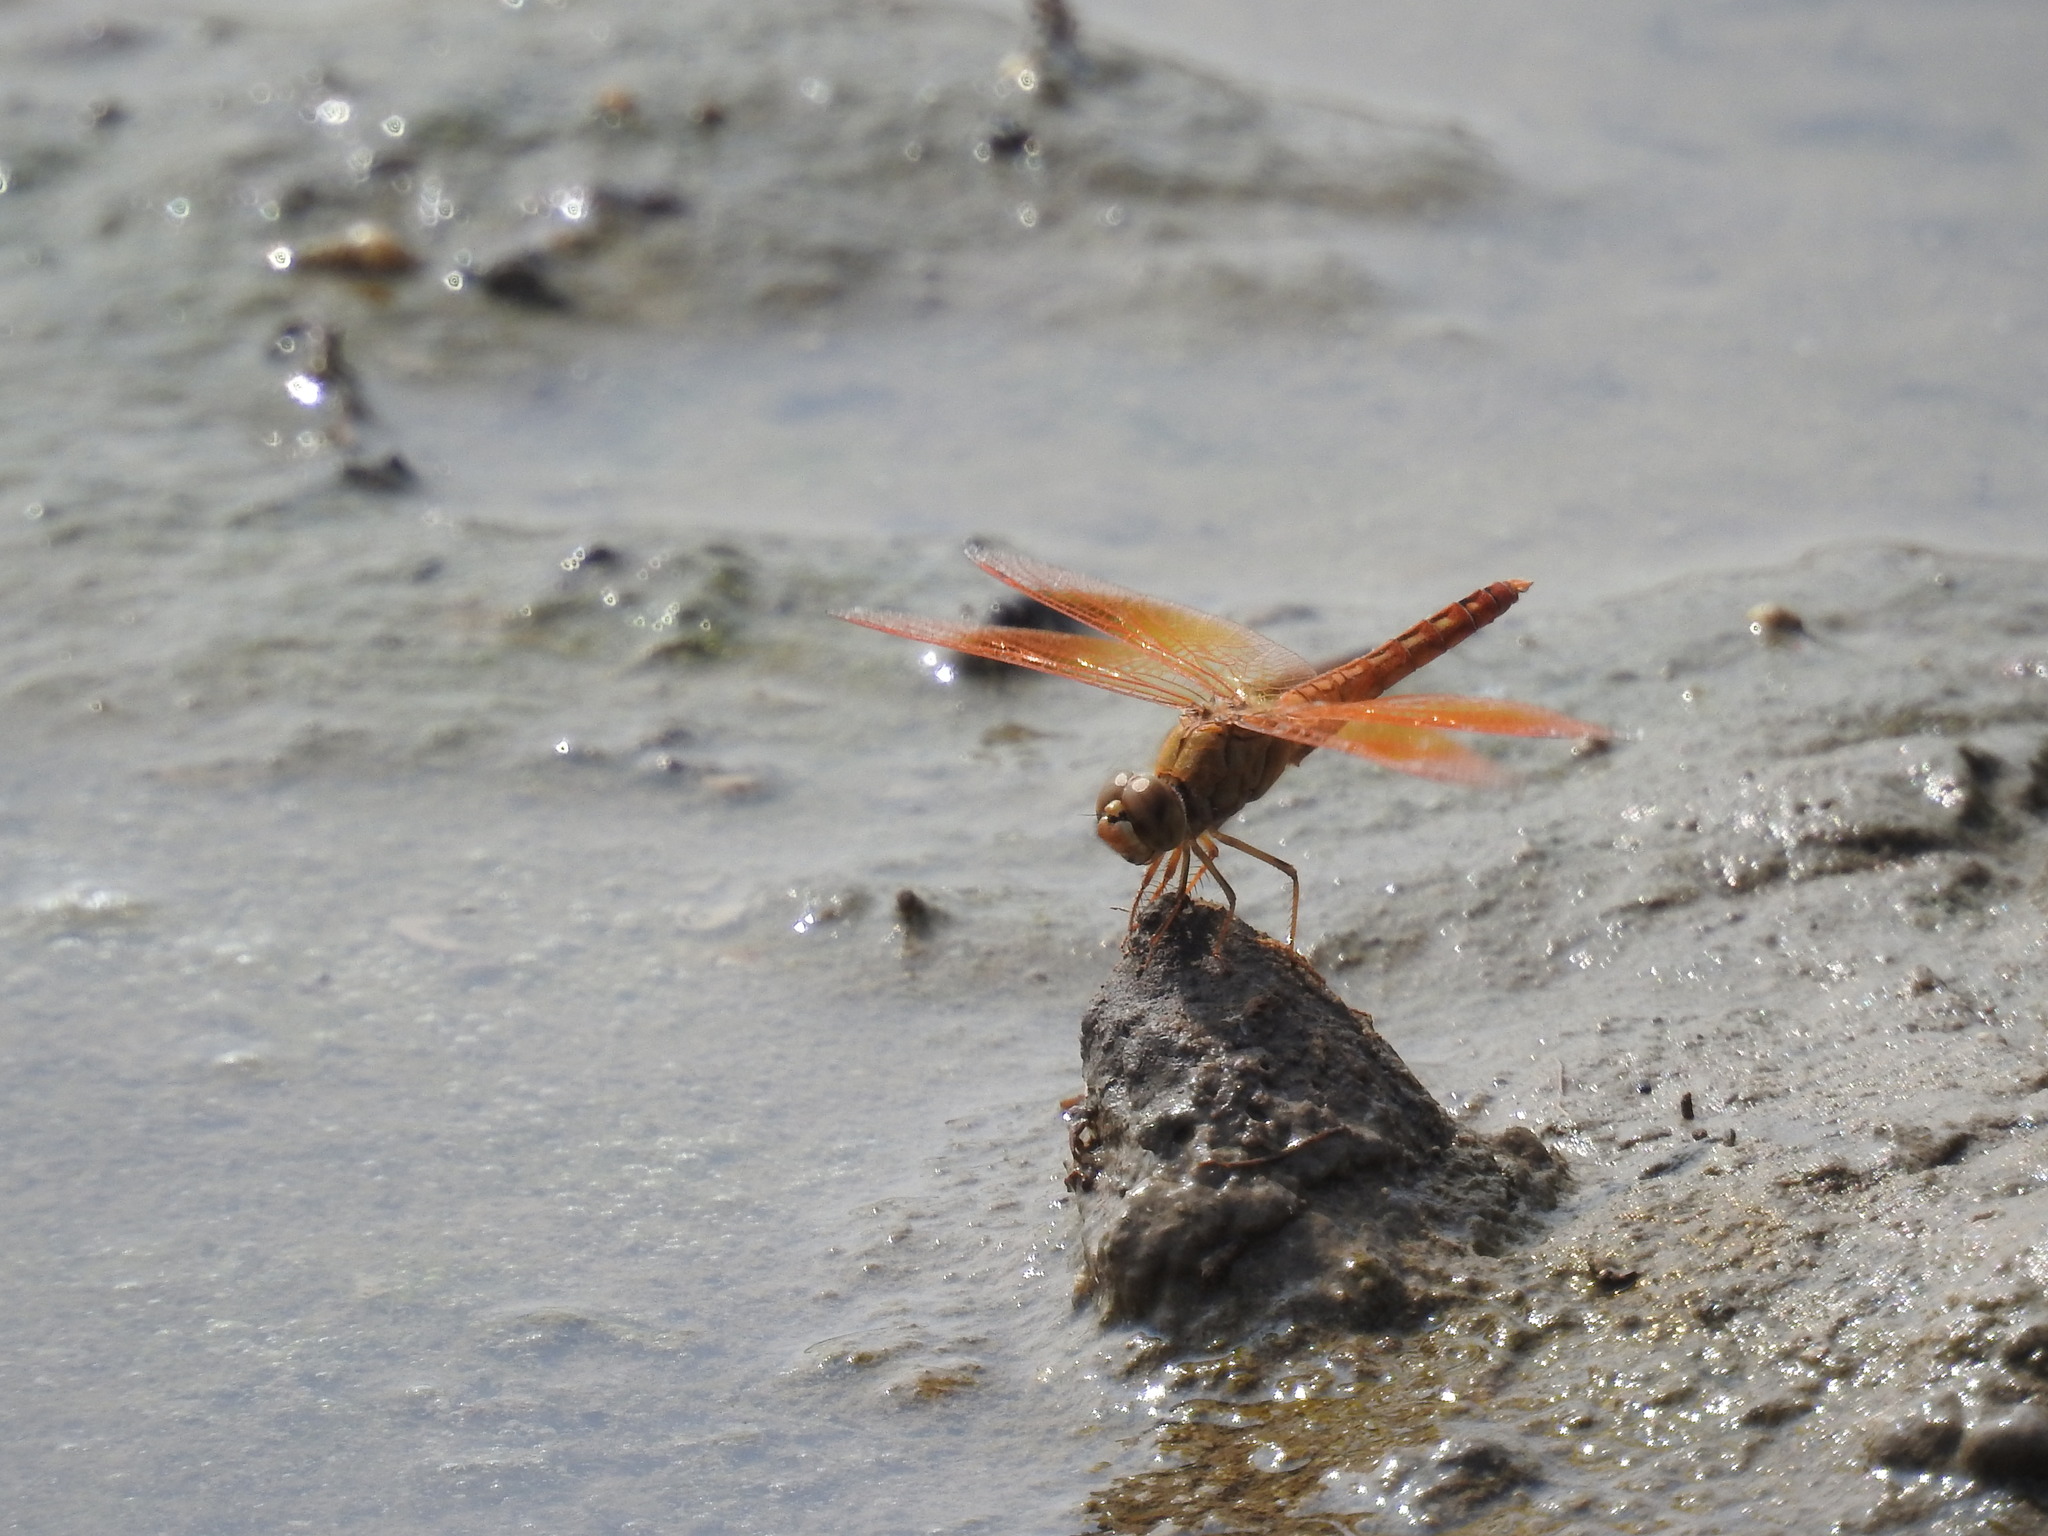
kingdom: Animalia
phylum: Arthropoda
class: Insecta
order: Odonata
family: Libellulidae
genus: Brachythemis
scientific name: Brachythemis contaminata
